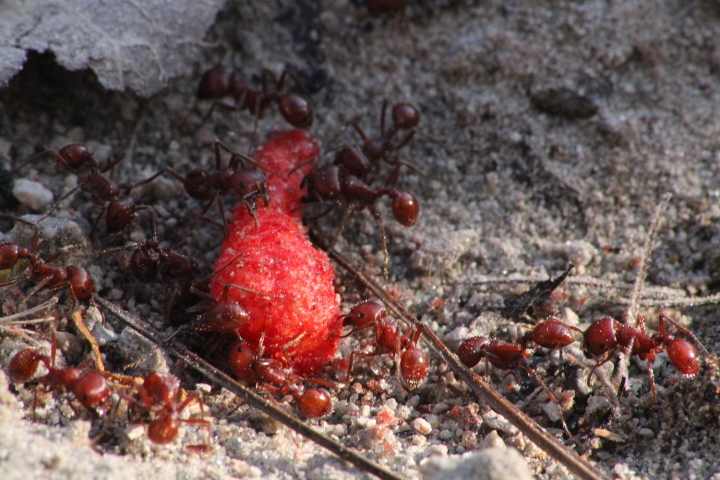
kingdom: Animalia
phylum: Arthropoda
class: Insecta
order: Hymenoptera
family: Formicidae
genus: Pogonomyrmex
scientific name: Pogonomyrmex barbatus
